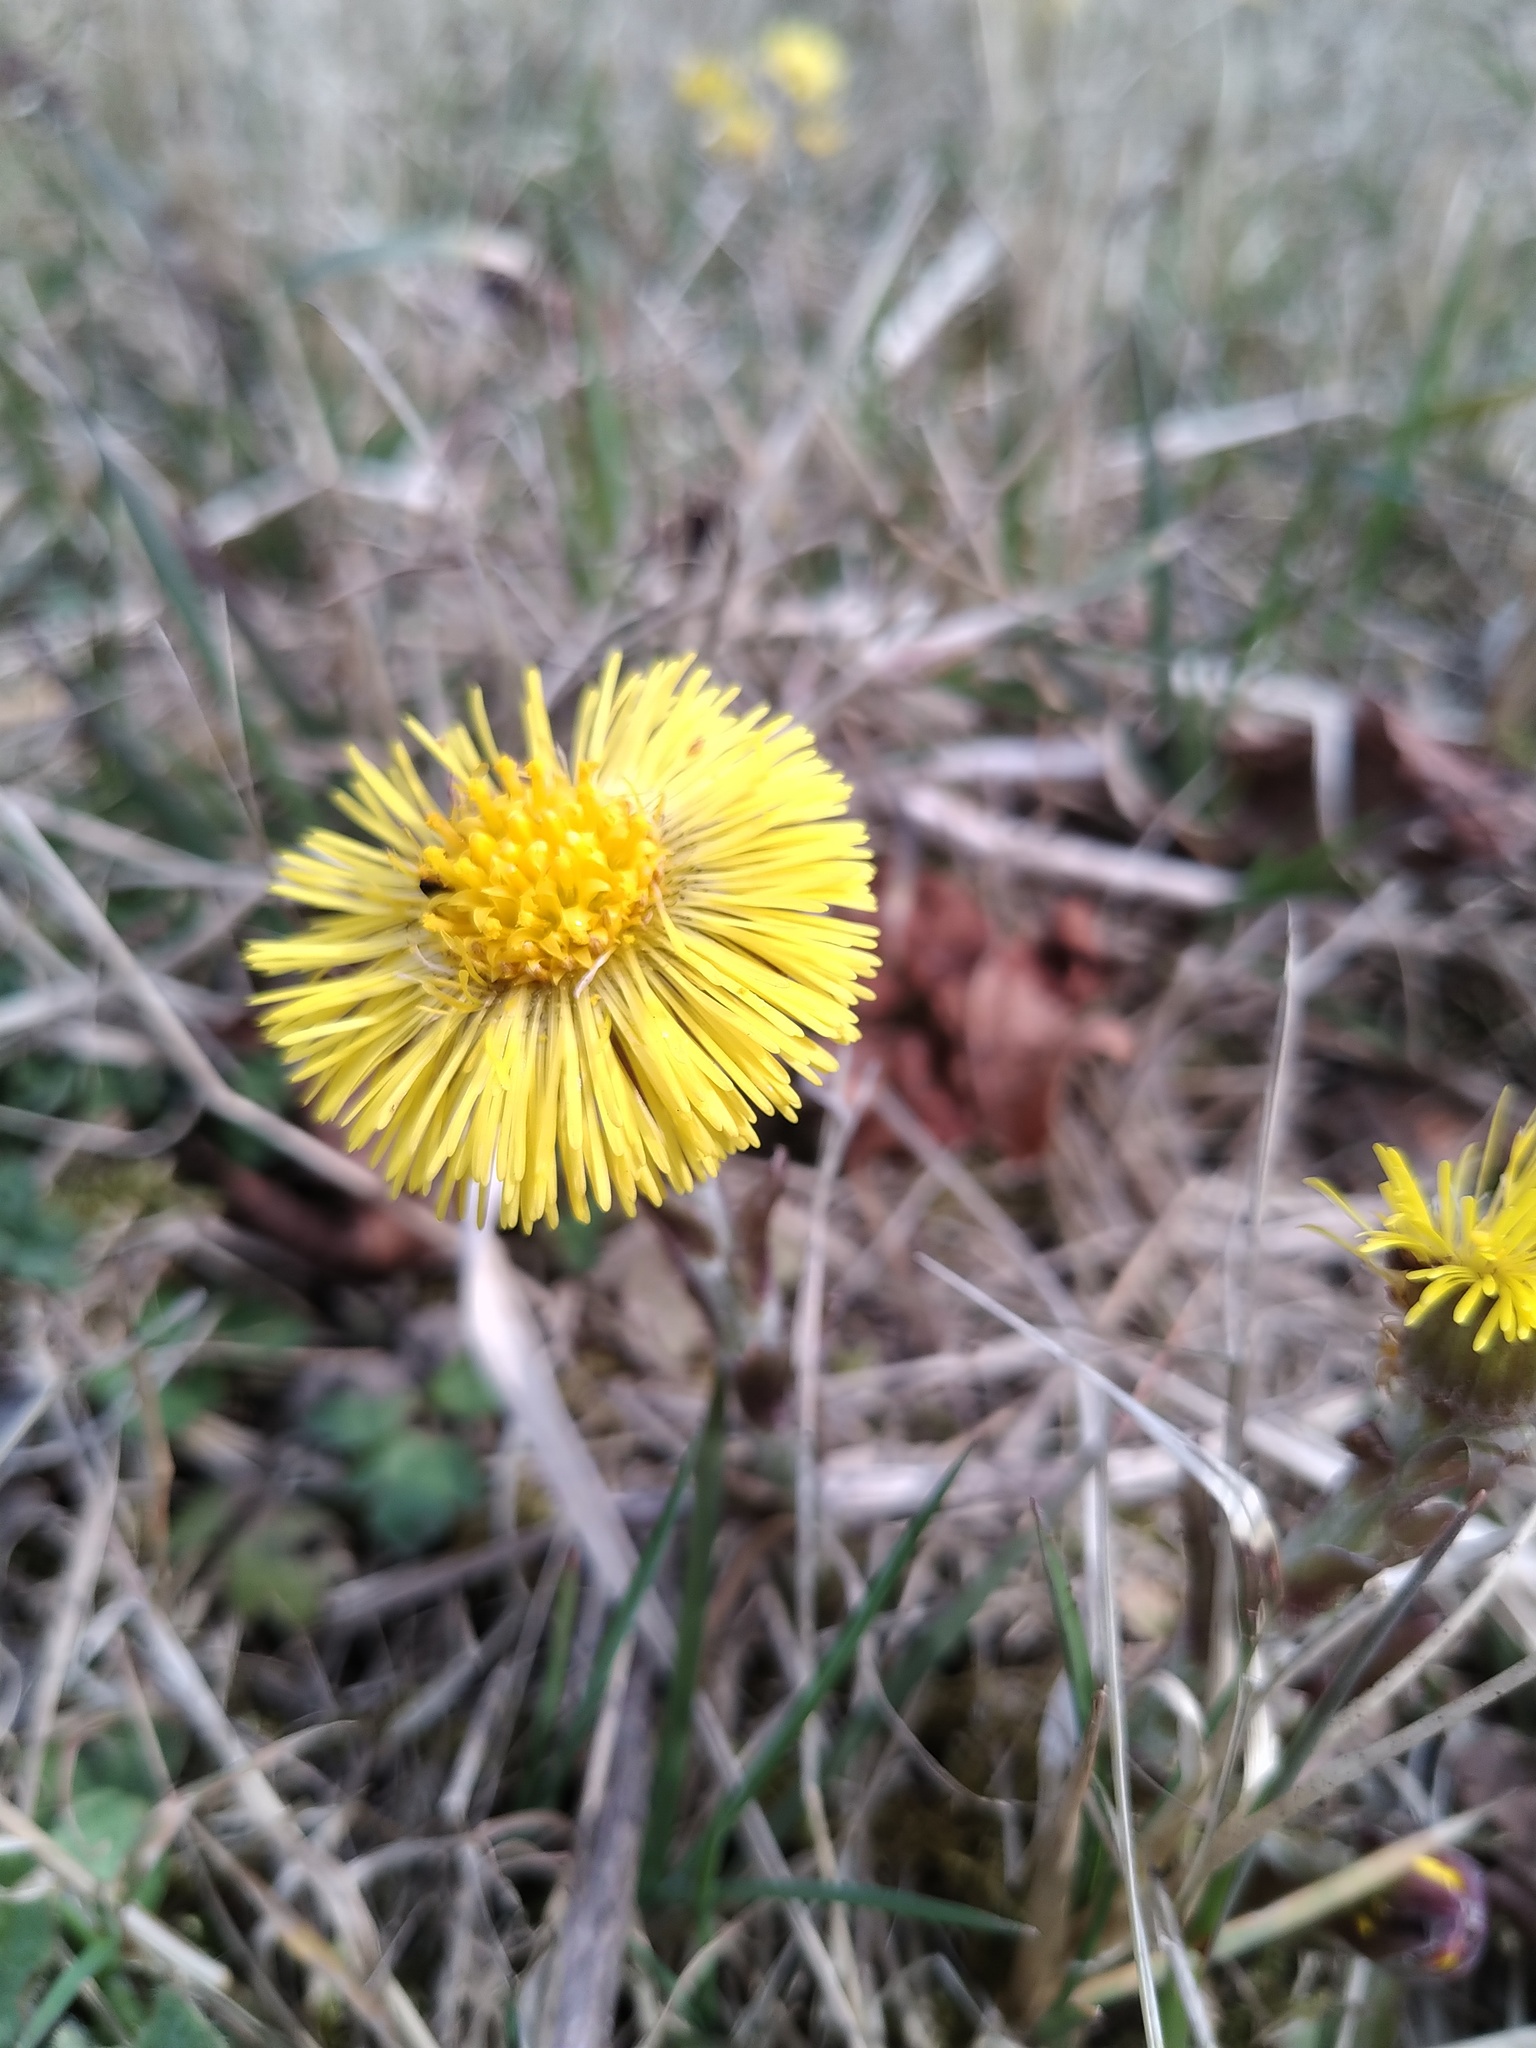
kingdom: Plantae
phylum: Tracheophyta
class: Magnoliopsida
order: Asterales
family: Asteraceae
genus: Tussilago
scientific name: Tussilago farfara
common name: Coltsfoot
